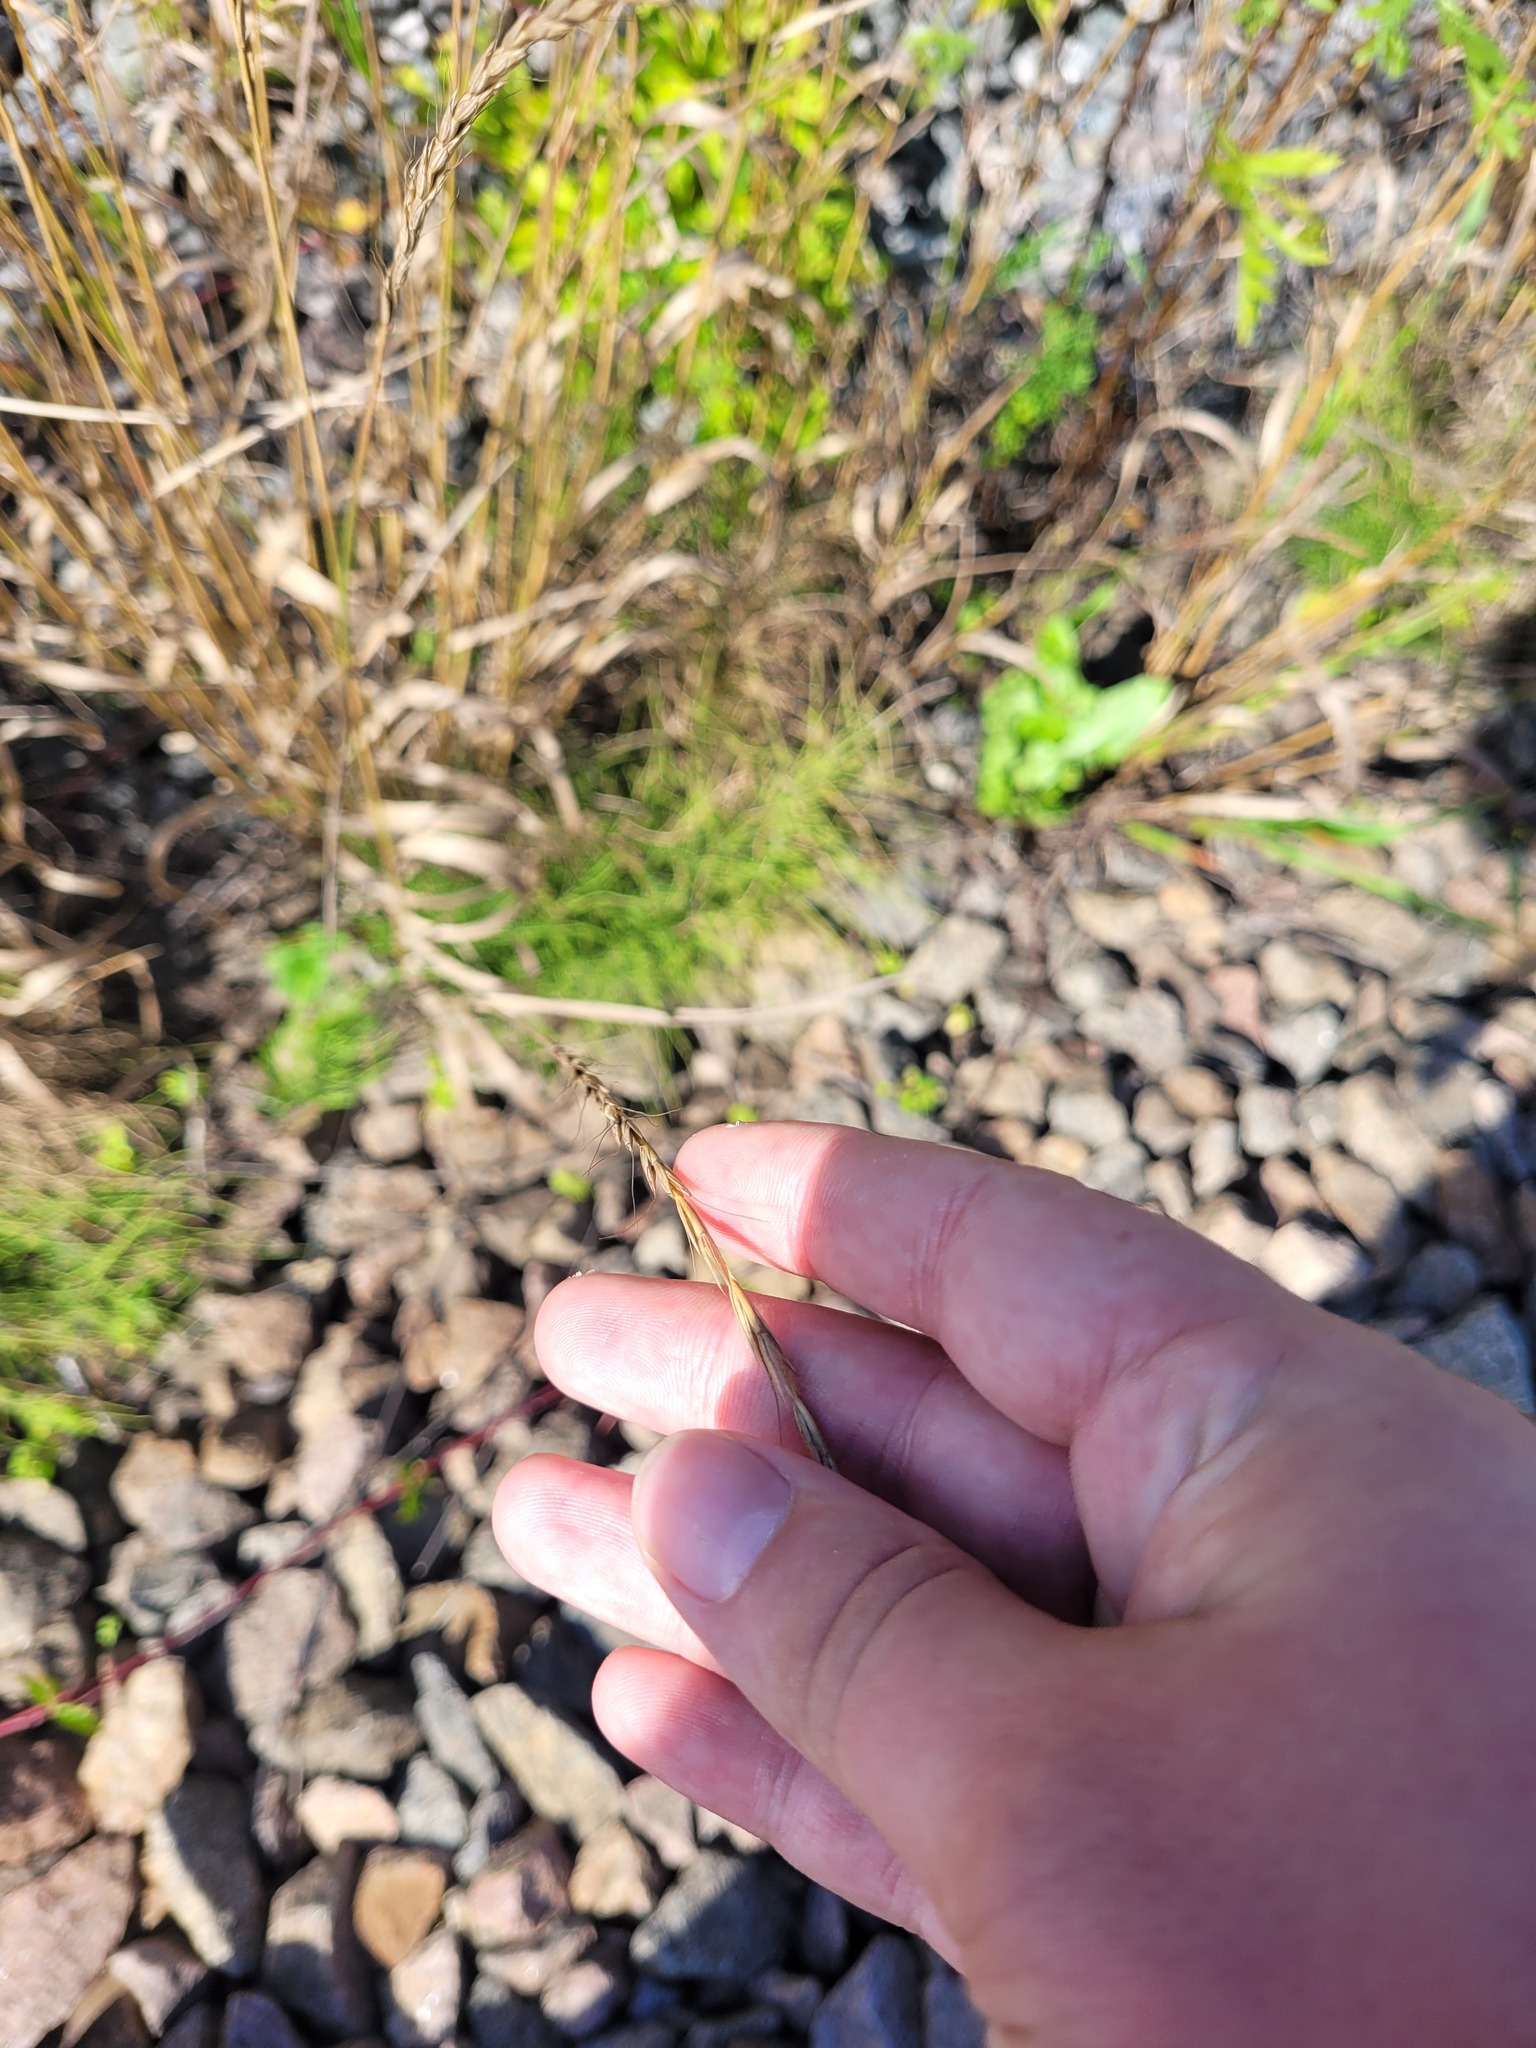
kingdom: Plantae
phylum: Tracheophyta
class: Liliopsida
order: Poales
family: Poaceae
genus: Elymus
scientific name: Elymus caninus
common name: Bearded couch
